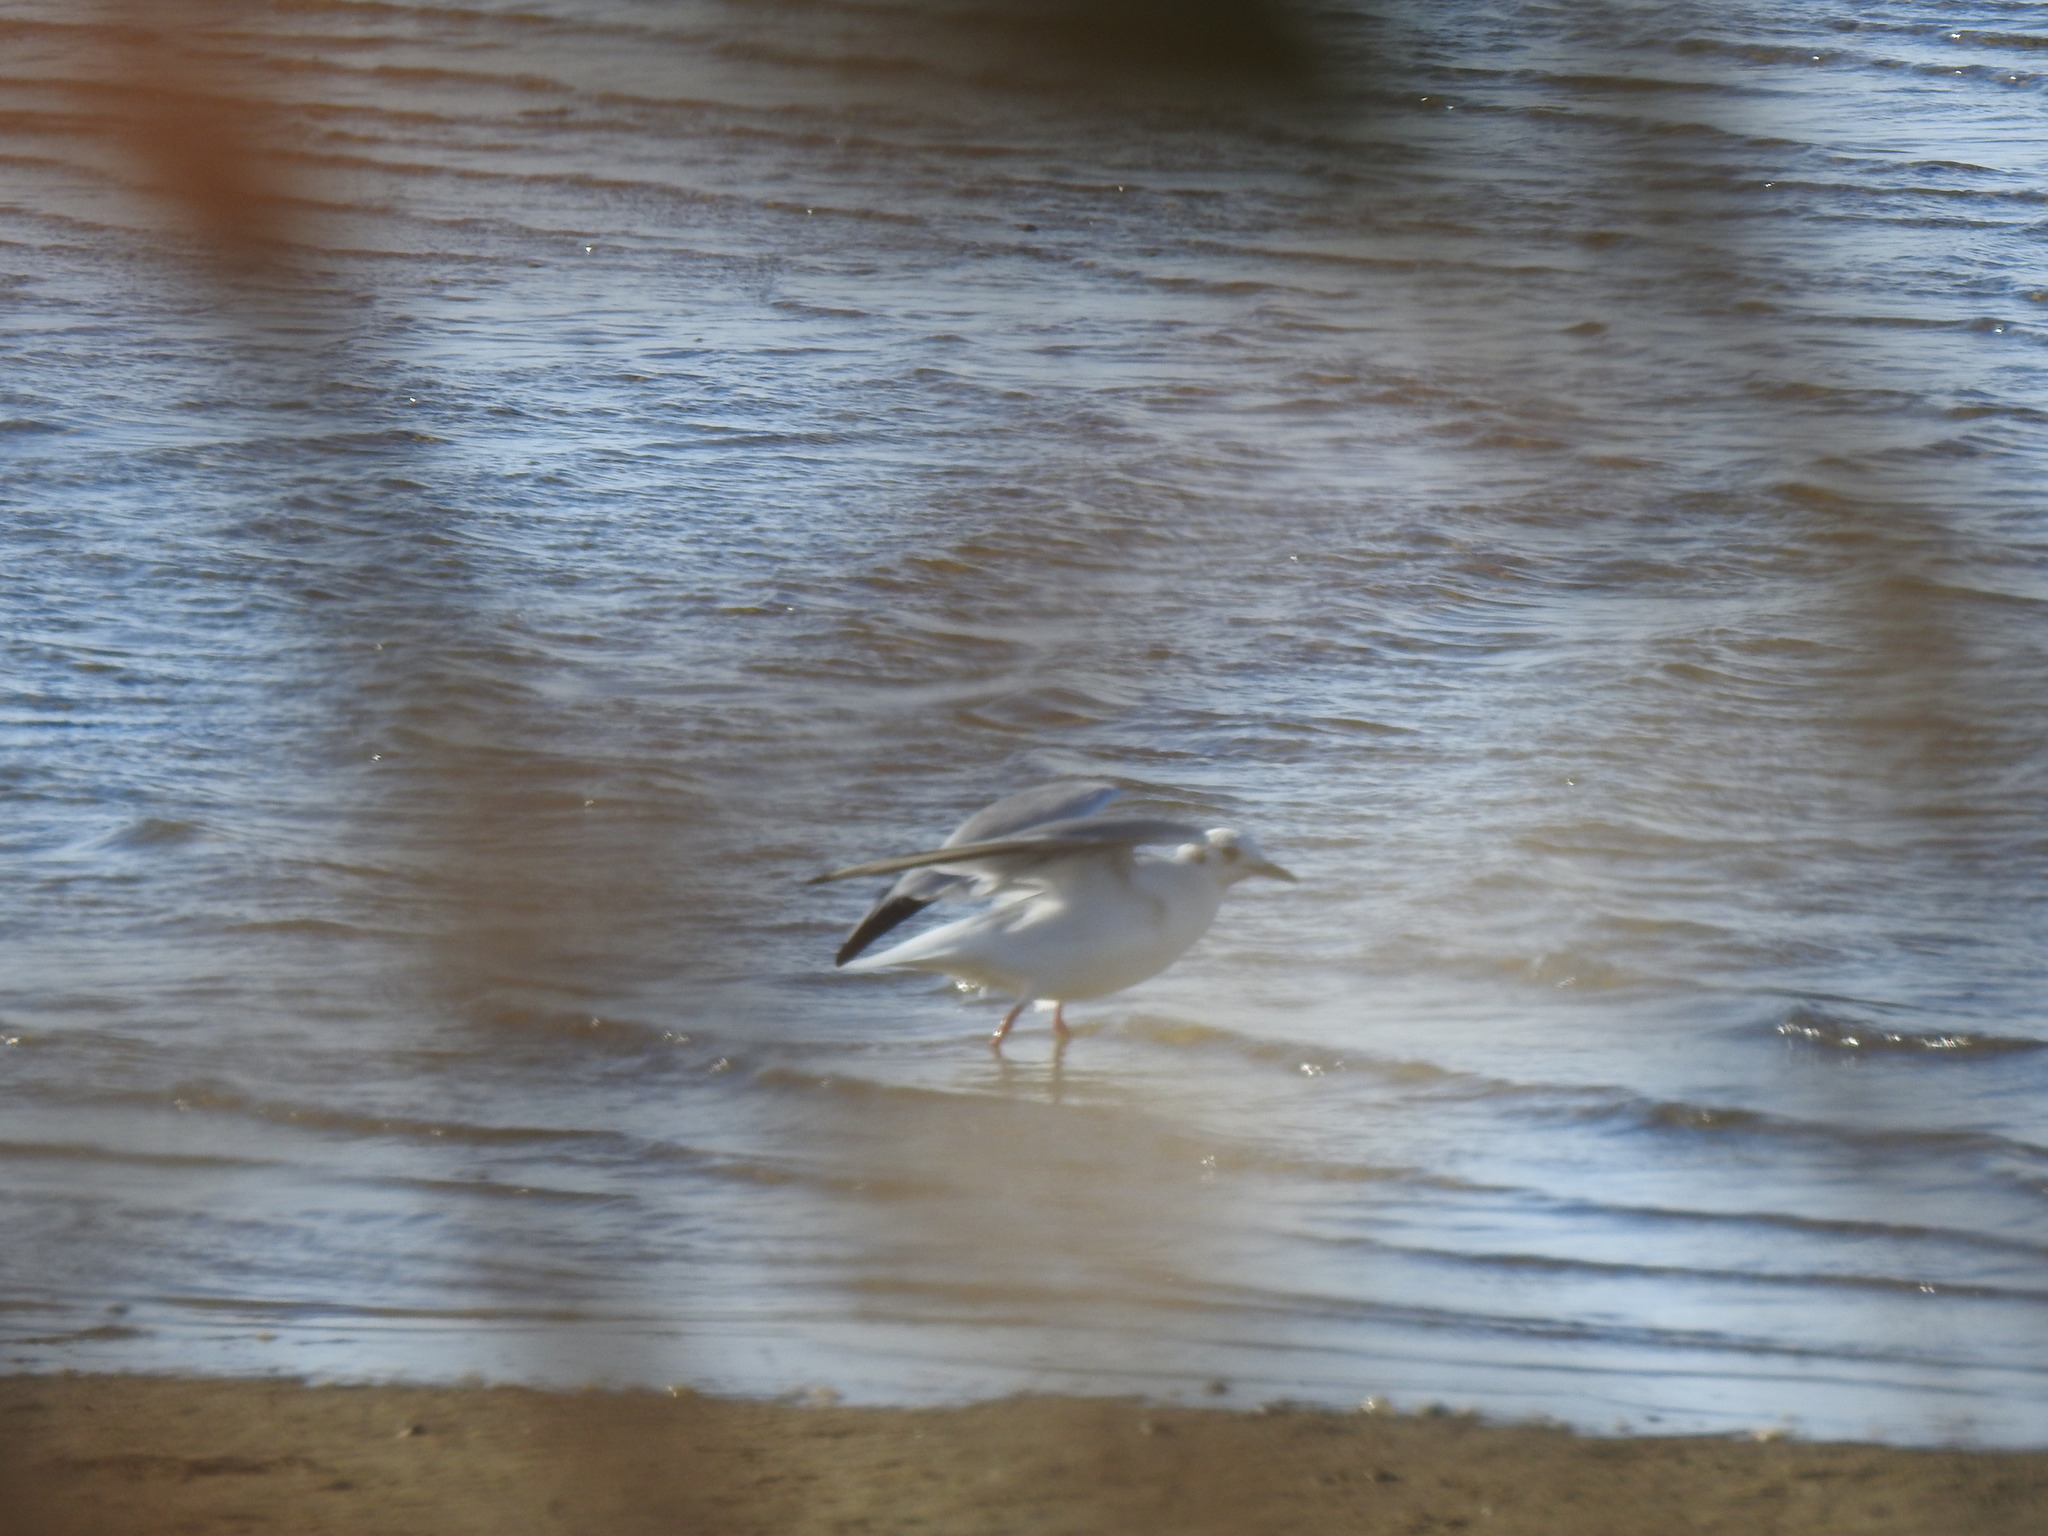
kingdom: Animalia
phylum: Chordata
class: Aves
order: Charadriiformes
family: Laridae
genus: Chroicocephalus
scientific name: Chroicocephalus ridibundus
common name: Black-headed gull
